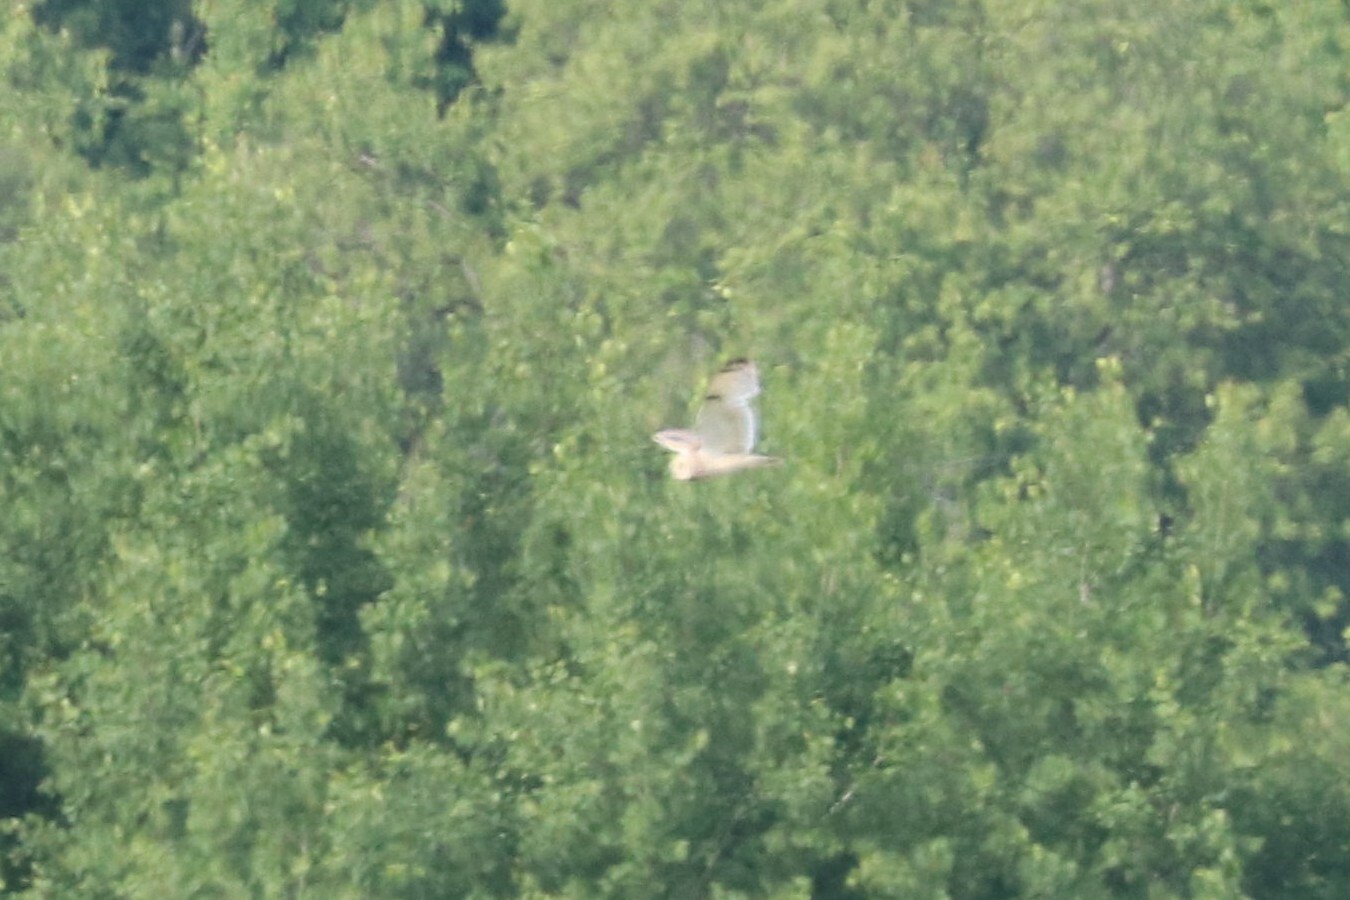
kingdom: Animalia
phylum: Chordata
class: Aves
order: Strigiformes
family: Strigidae
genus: Asio
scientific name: Asio flammeus
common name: Short-eared owl
